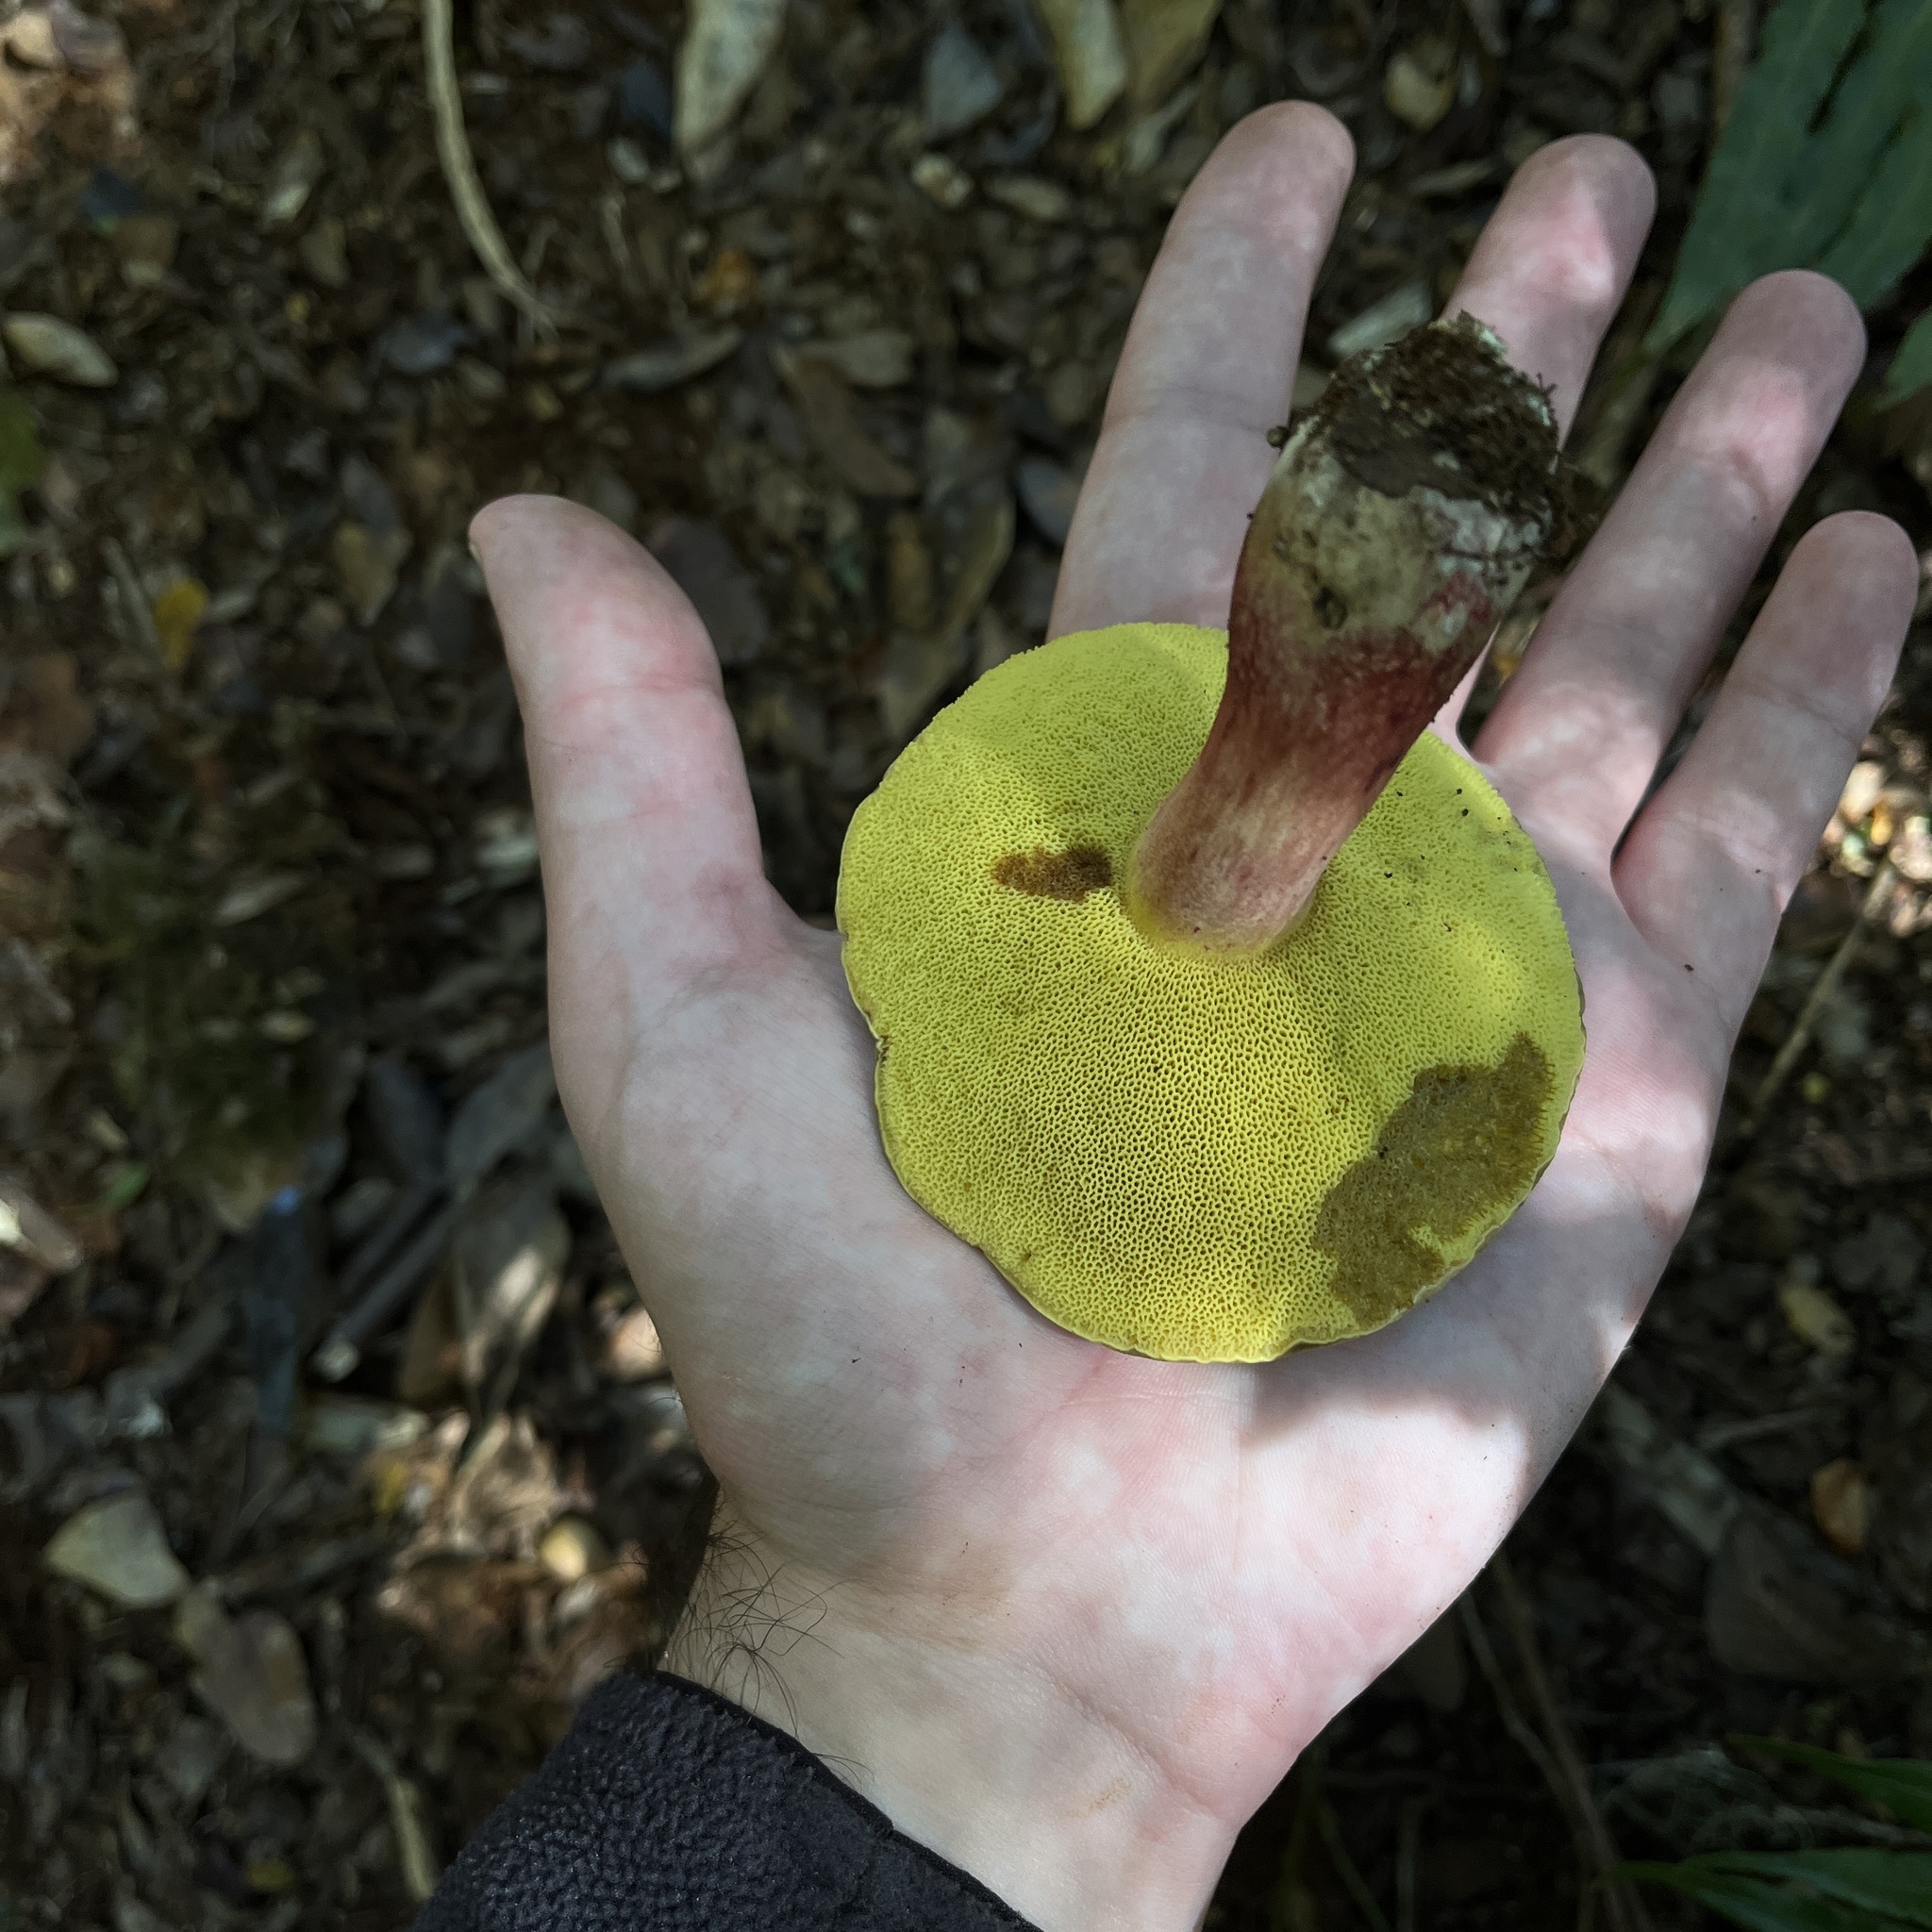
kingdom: Fungi
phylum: Basidiomycota
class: Agaricomycetes
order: Boletales
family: Boletaceae
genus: Boletus
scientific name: Boletus loyita
